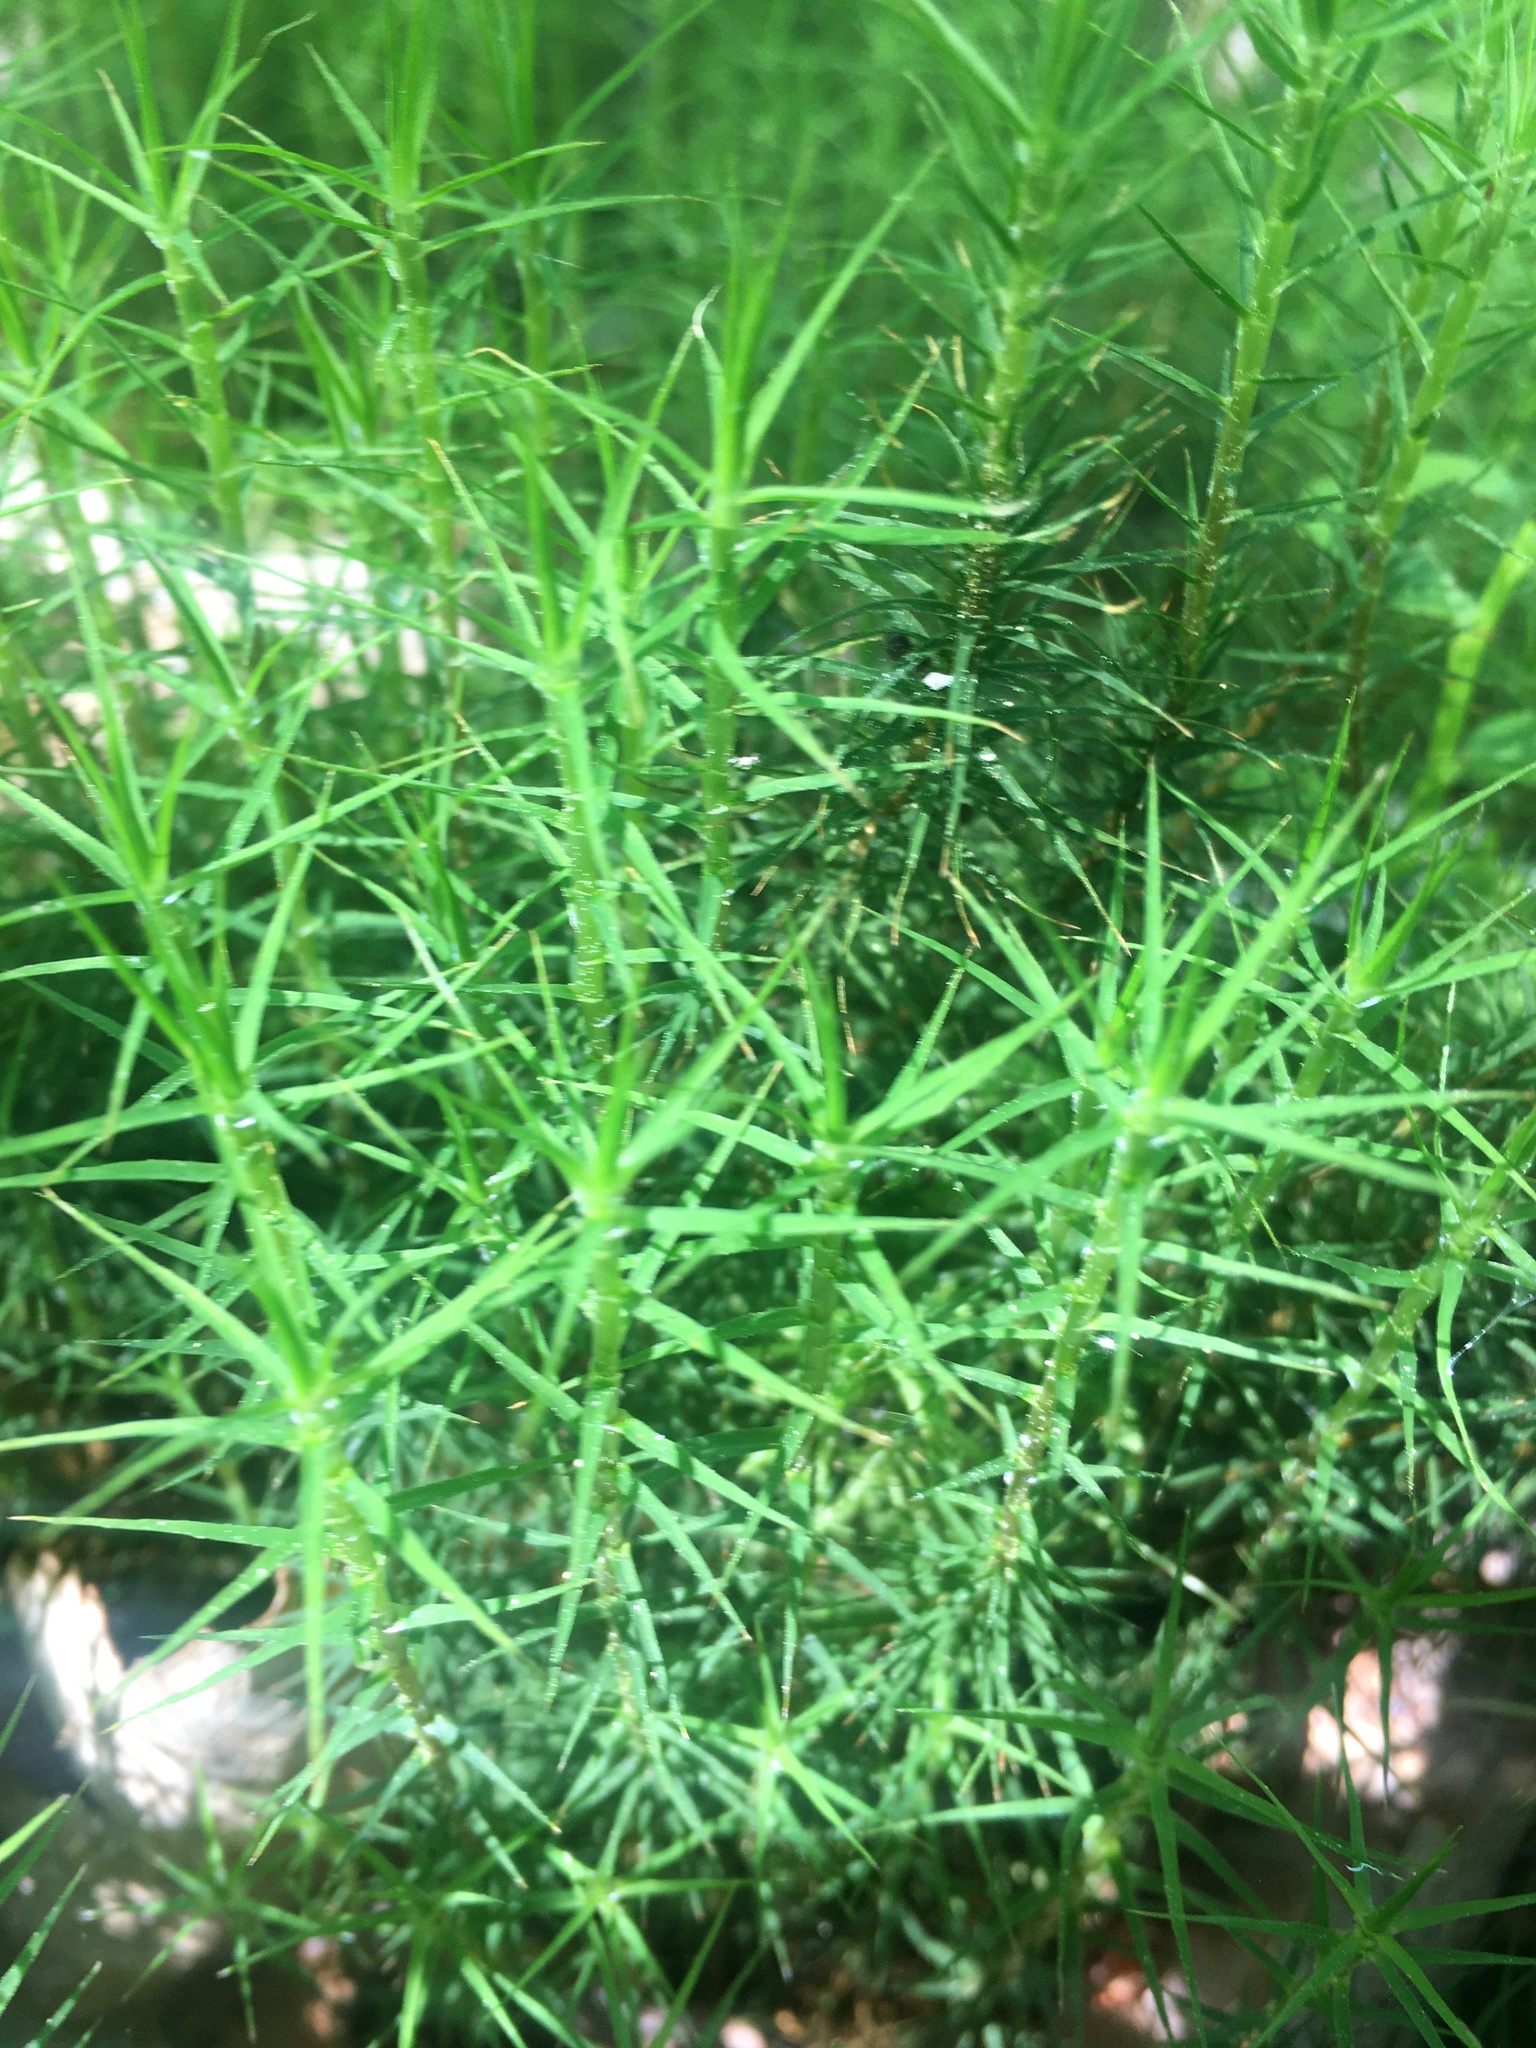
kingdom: Plantae
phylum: Bryophyta
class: Polytrichopsida
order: Polytrichales
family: Polytrichaceae
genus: Polytrichum
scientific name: Polytrichum commune
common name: Common haircap
